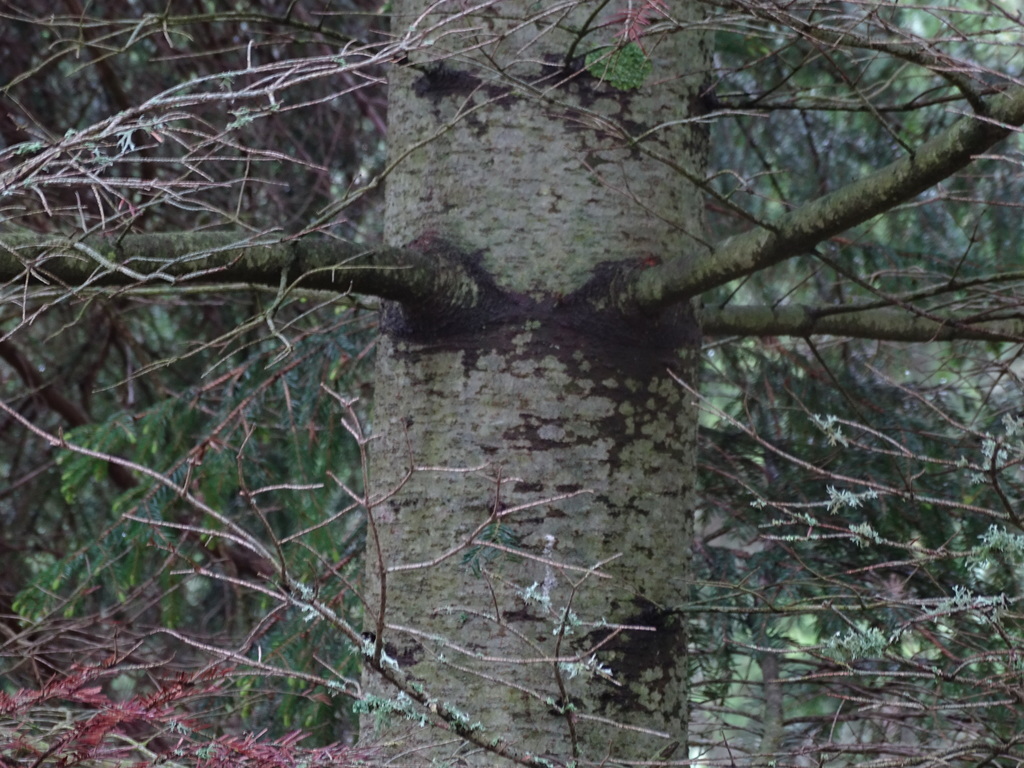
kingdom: Plantae
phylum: Tracheophyta
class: Pinopsida
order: Pinales
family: Pinaceae
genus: Abies
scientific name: Abies alba
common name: Silver fir
